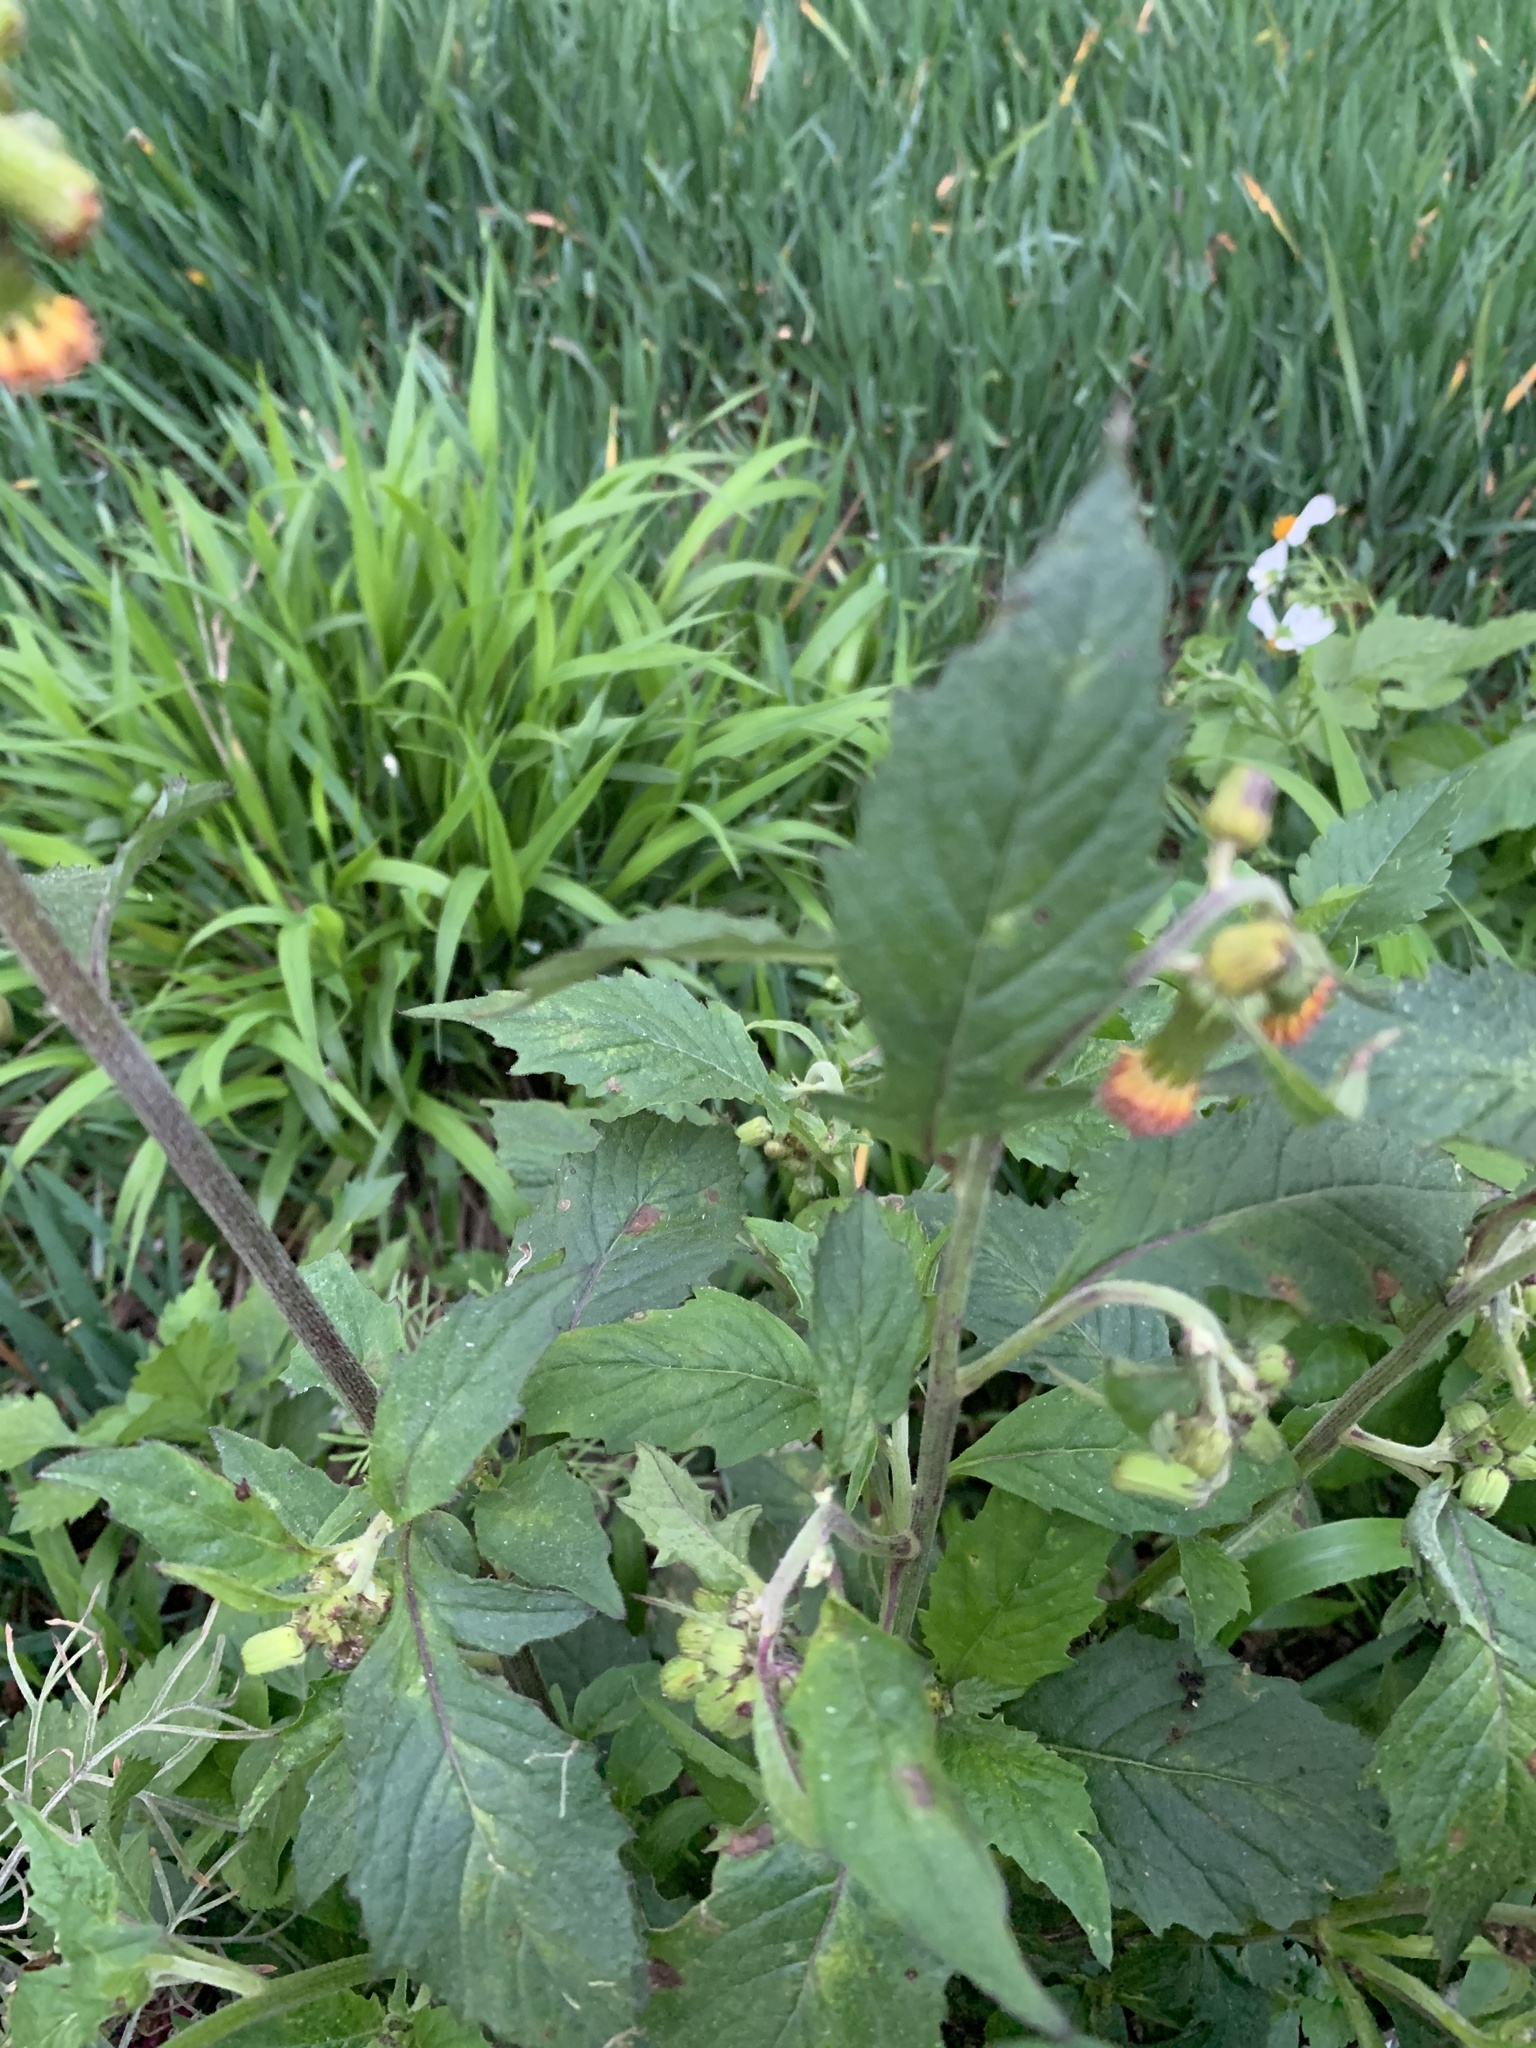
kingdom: Plantae
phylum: Tracheophyta
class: Magnoliopsida
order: Asterales
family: Asteraceae
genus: Crassocephalum
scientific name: Crassocephalum crepidioides
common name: Redflower ragleaf
